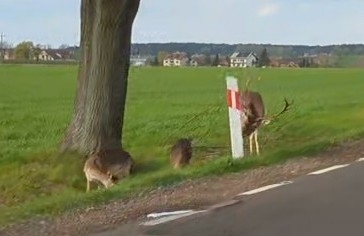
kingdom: Animalia
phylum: Chordata
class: Mammalia
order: Artiodactyla
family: Cervidae
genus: Dama
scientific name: Dama dama
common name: Fallow deer
